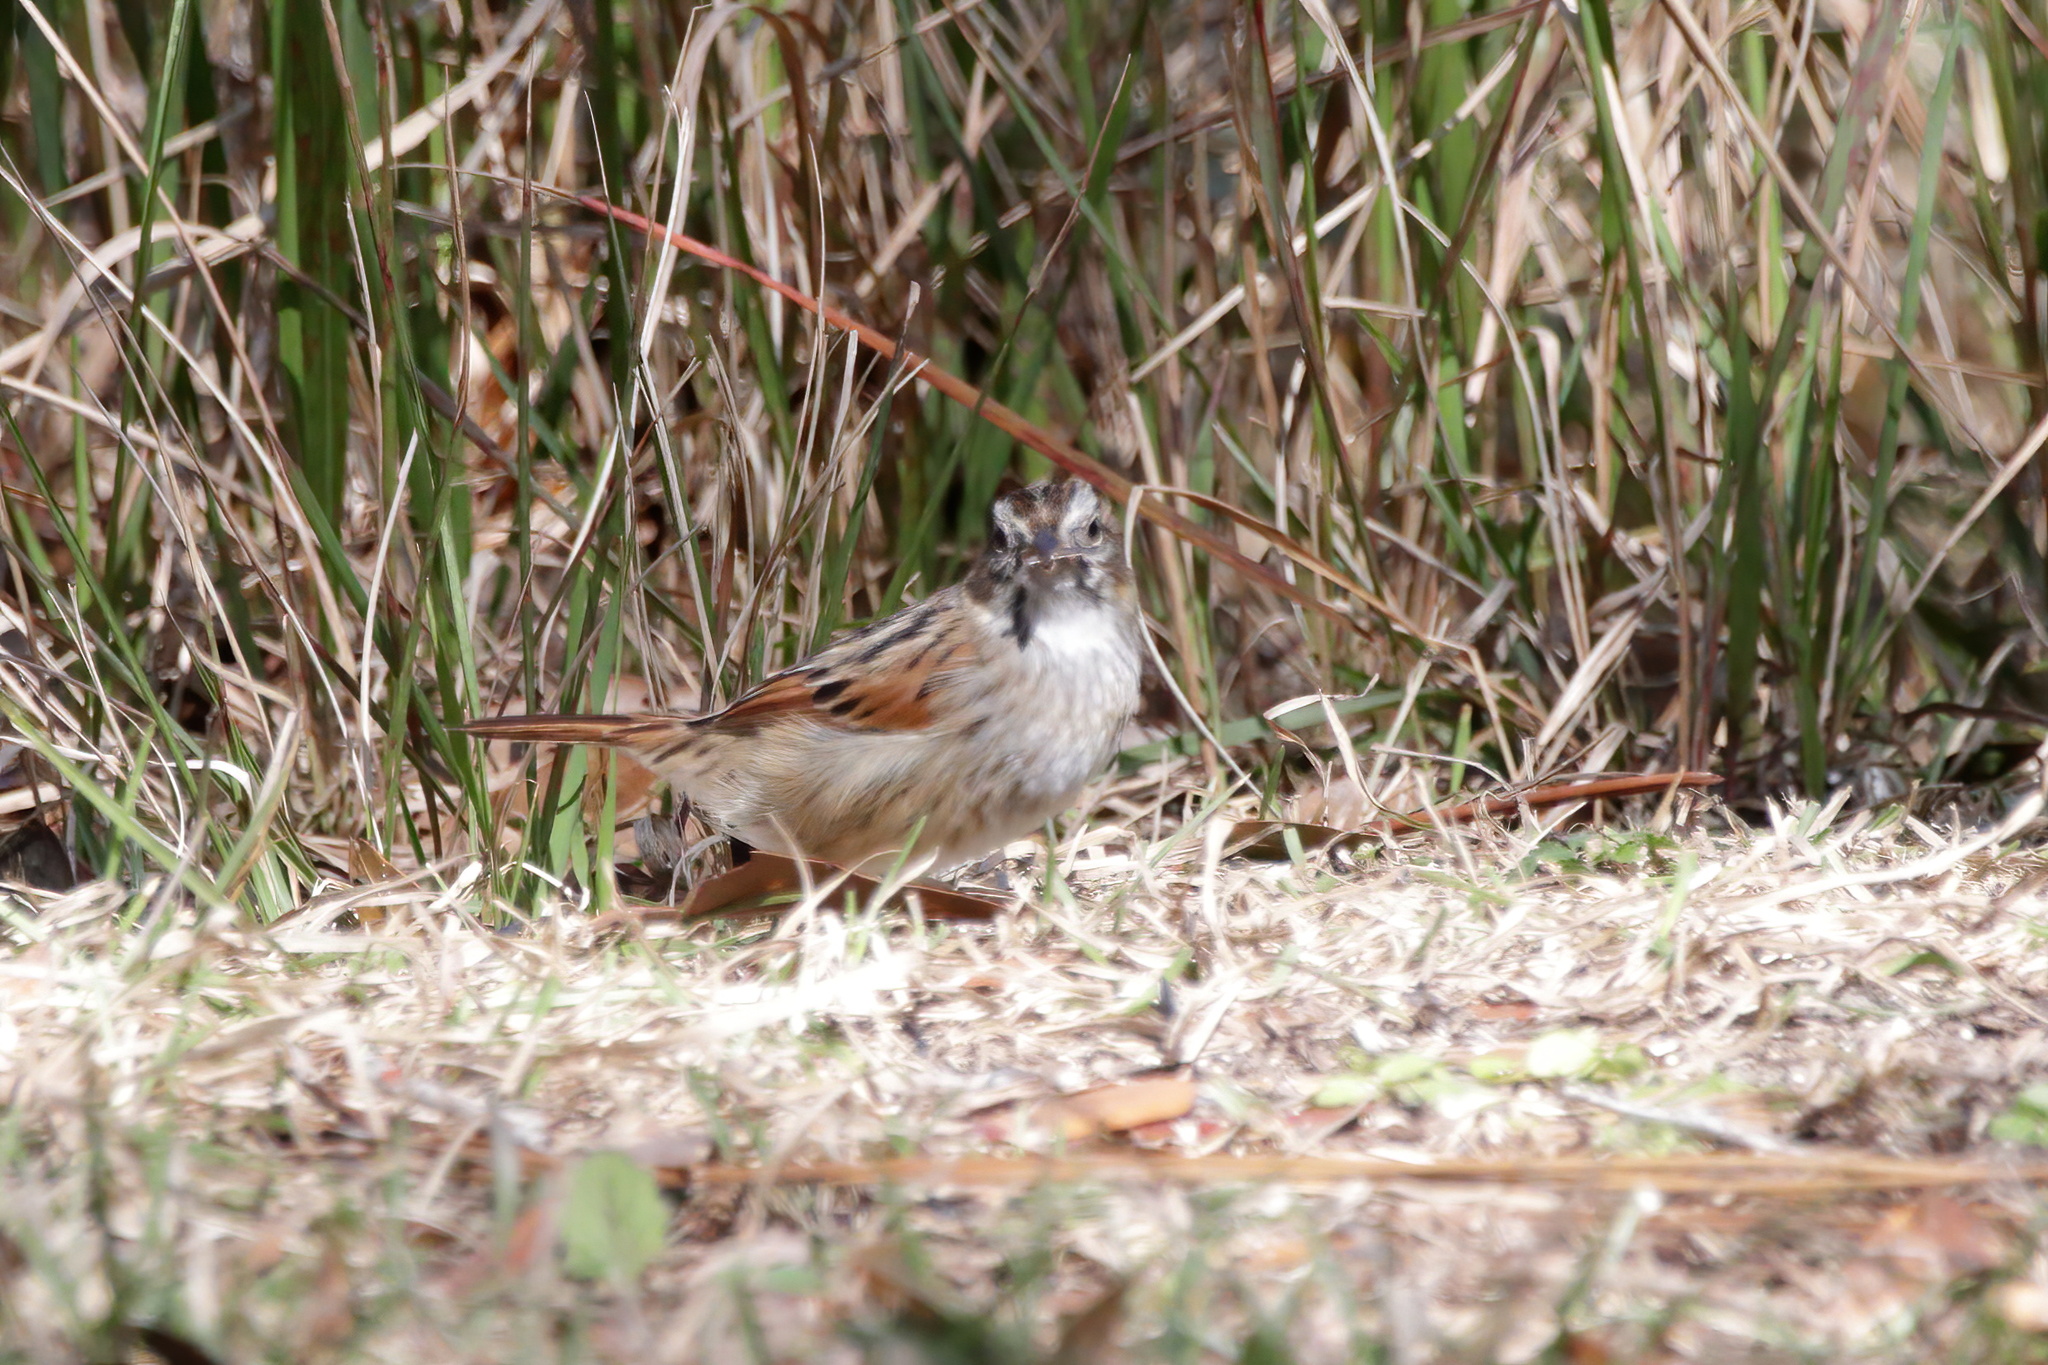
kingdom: Animalia
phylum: Chordata
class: Aves
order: Passeriformes
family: Passerellidae
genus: Melospiza
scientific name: Melospiza georgiana
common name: Swamp sparrow
